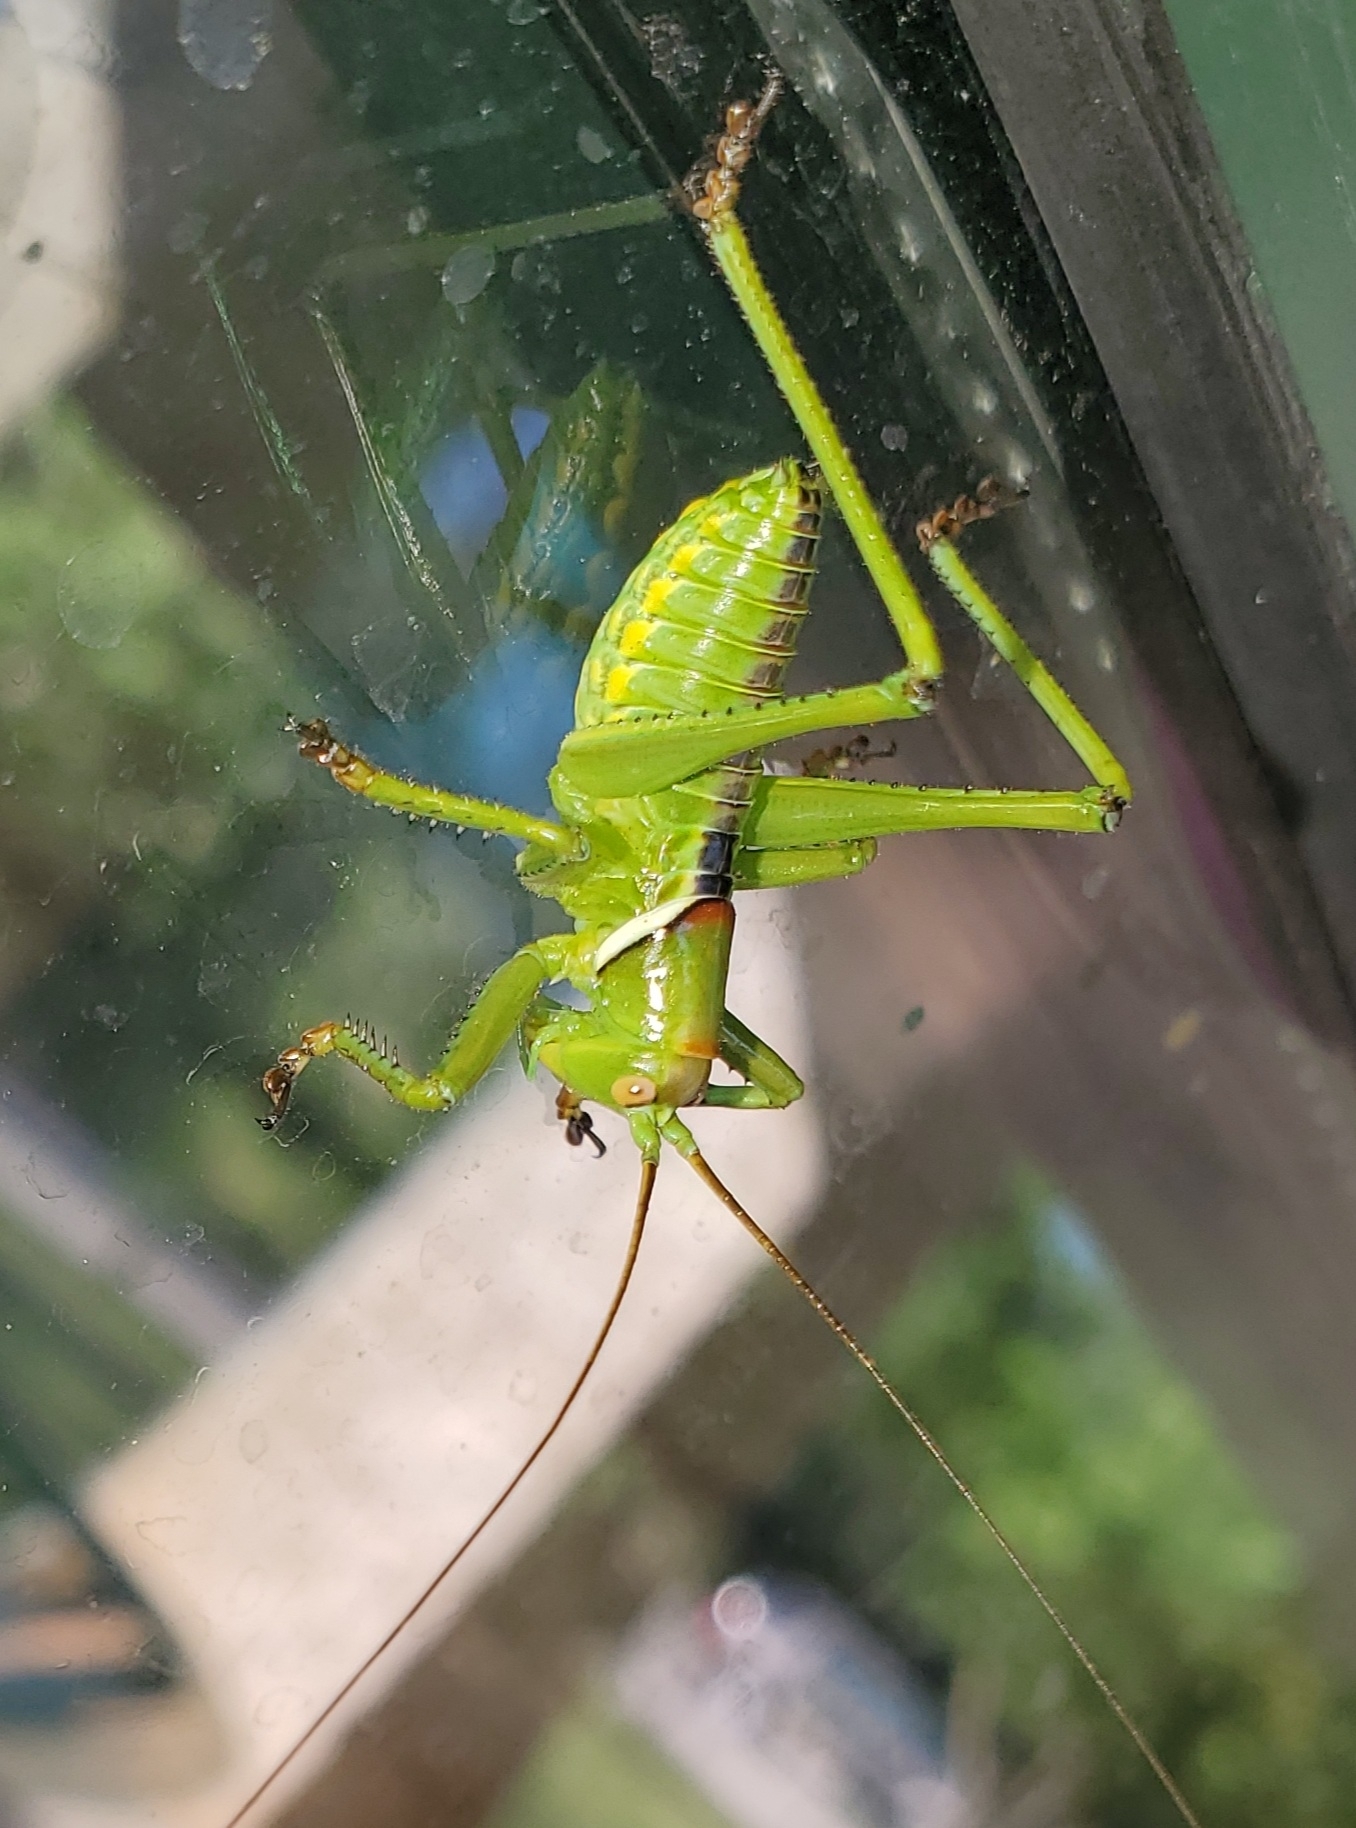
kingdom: Animalia
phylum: Arthropoda
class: Insecta
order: Orthoptera
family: Tettigoniidae
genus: Neobarrettia
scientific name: Neobarrettia spinosa
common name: Greater arid-land katydid
